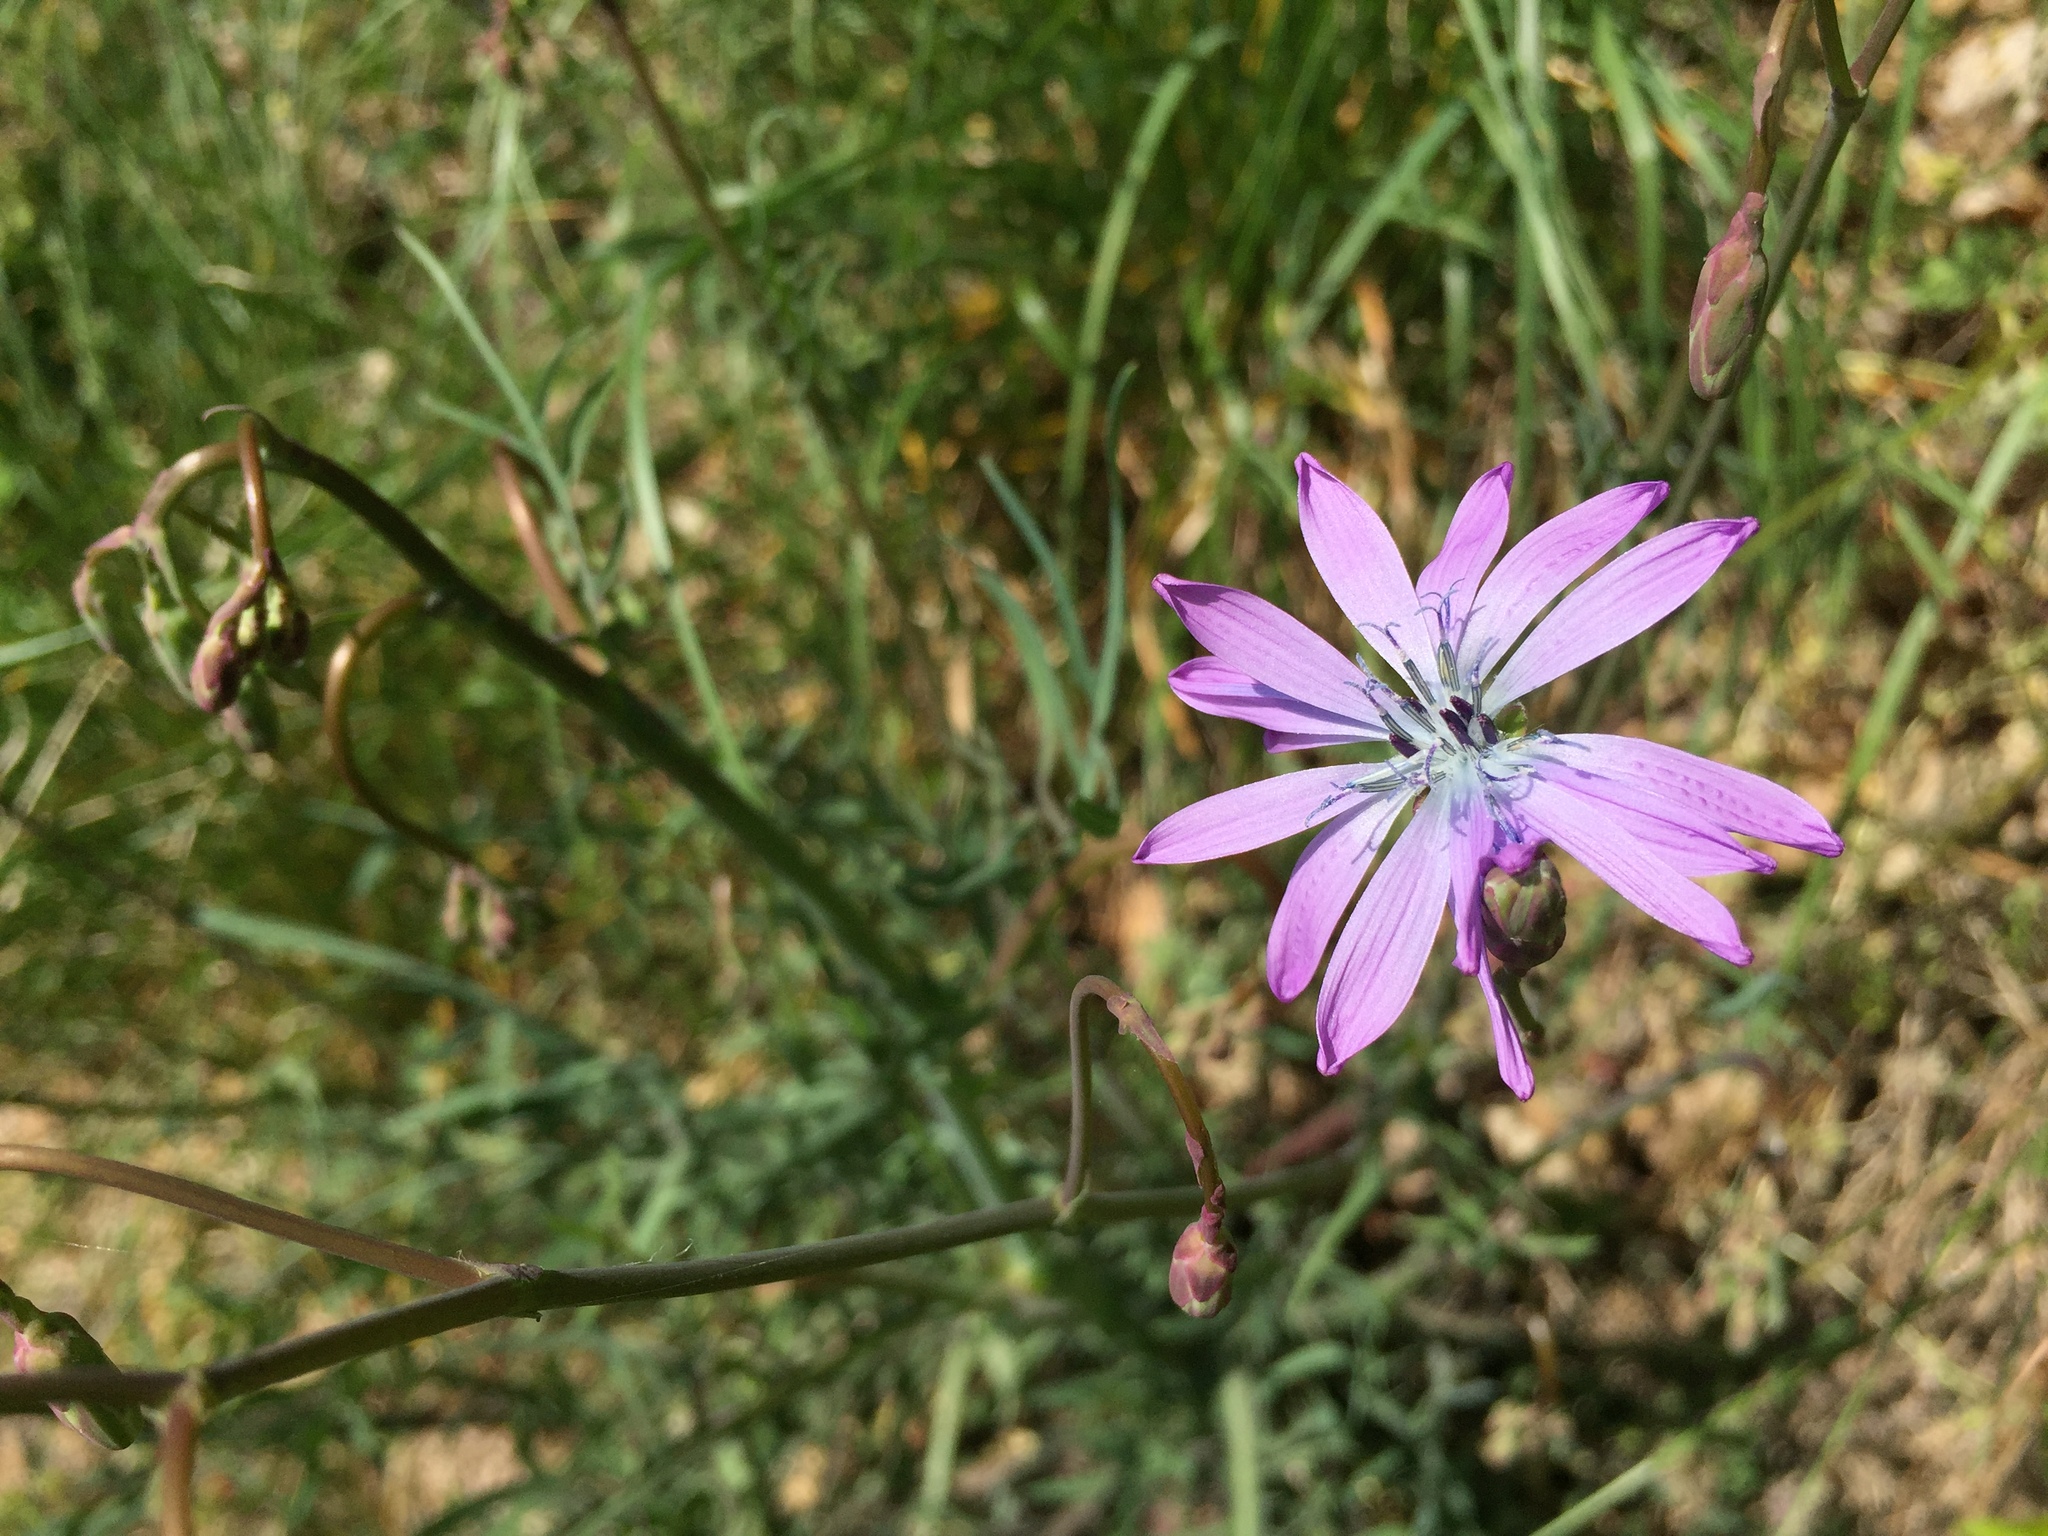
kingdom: Plantae
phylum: Tracheophyta
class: Magnoliopsida
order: Asterales
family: Asteraceae
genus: Lactuca
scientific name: Lactuca perennis
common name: Mountain lettuce
